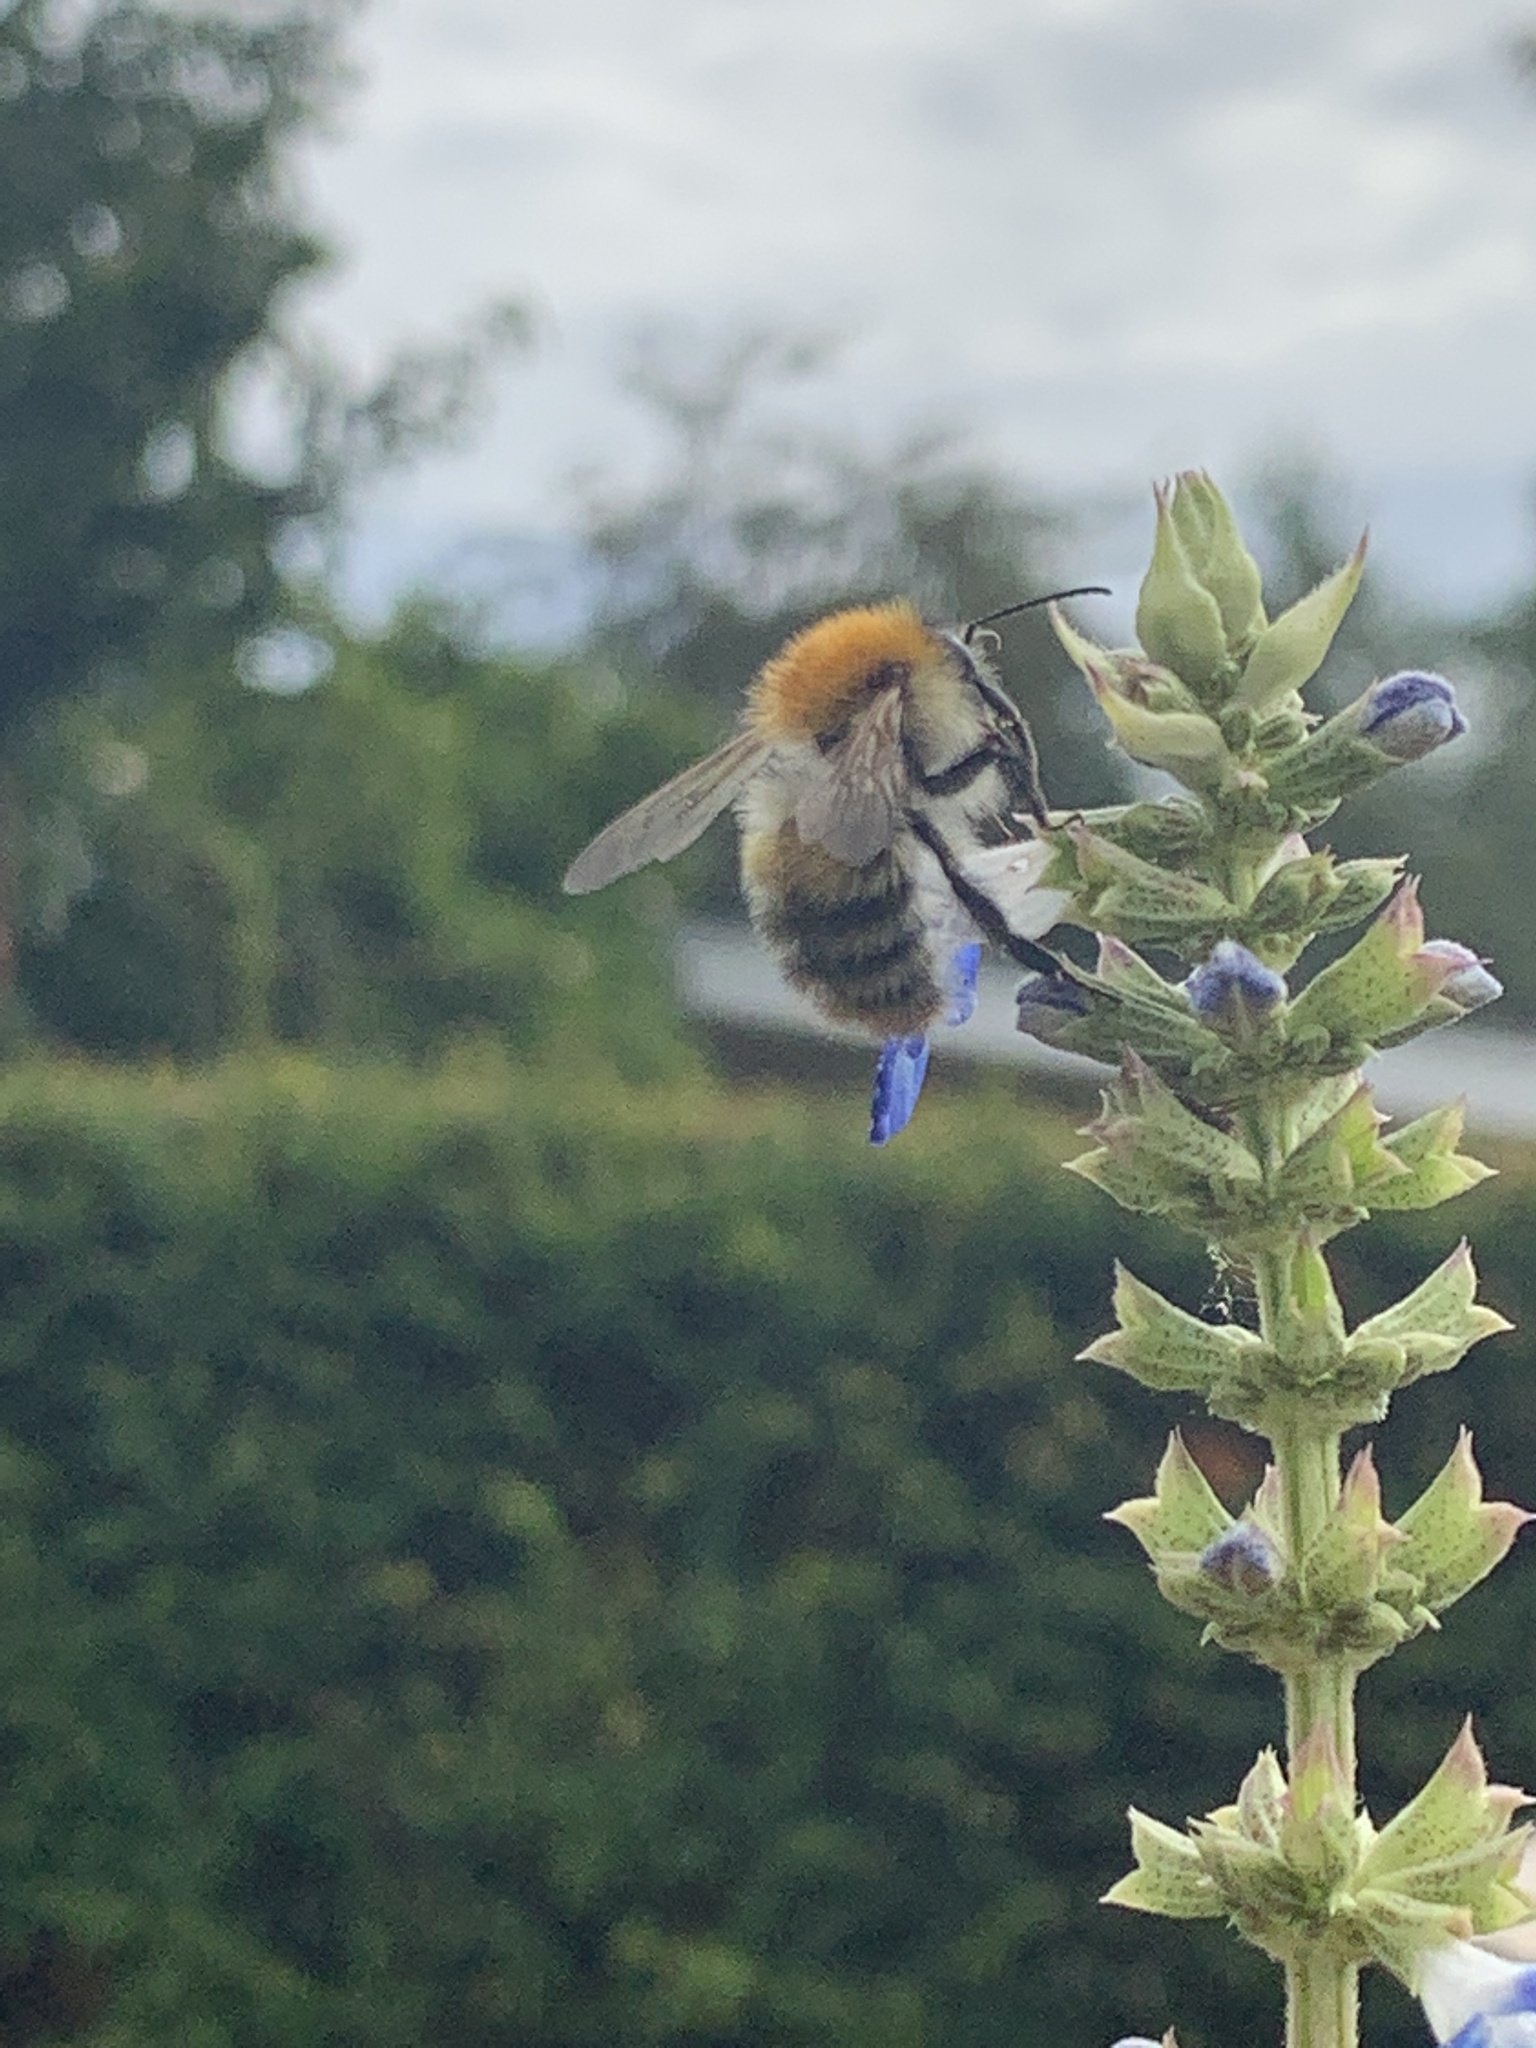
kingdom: Animalia
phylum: Arthropoda
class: Insecta
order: Hymenoptera
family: Apidae
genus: Bombus
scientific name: Bombus pascuorum
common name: Common carder bee
